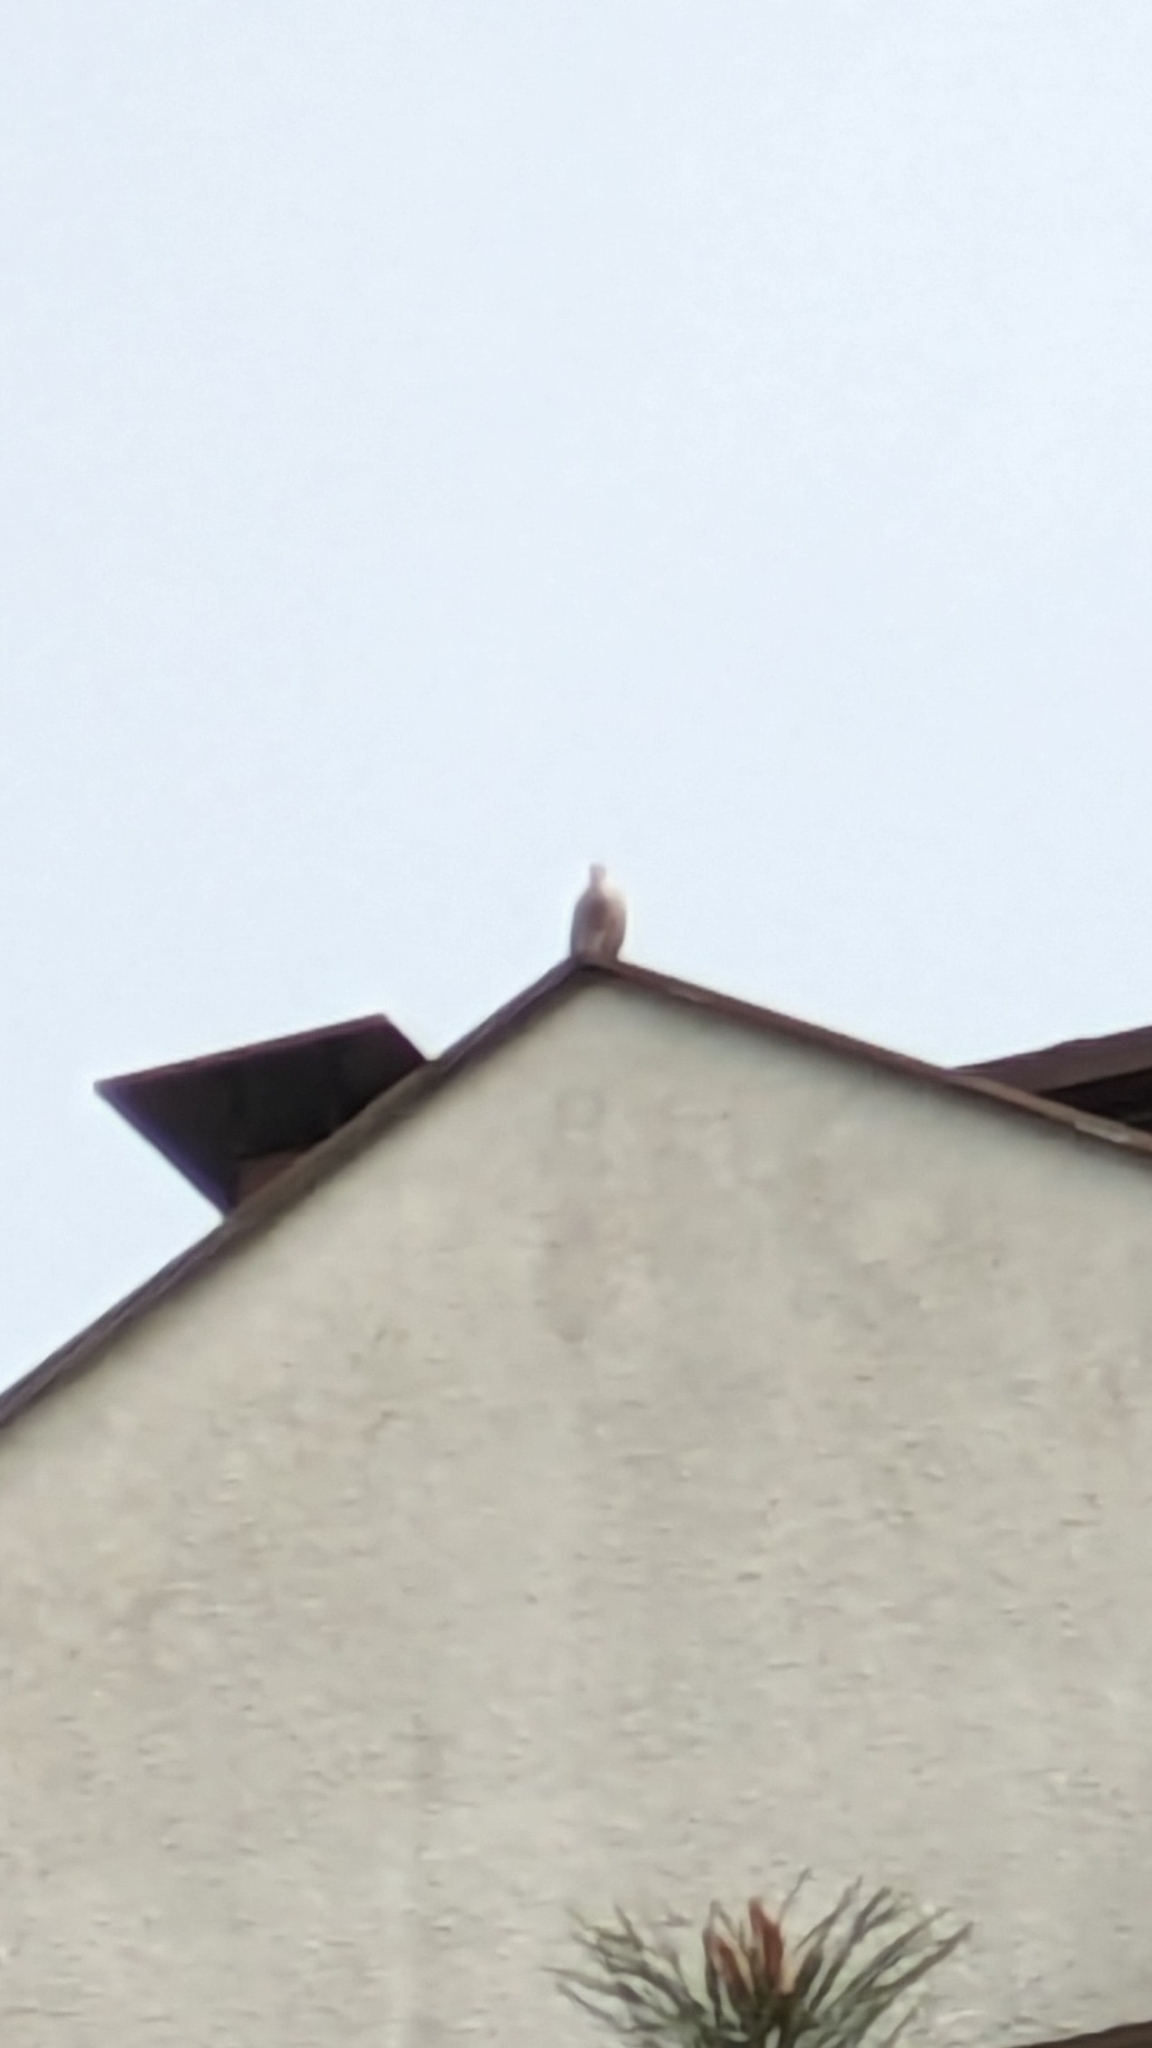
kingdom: Animalia
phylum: Chordata
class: Aves
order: Columbiformes
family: Columbidae
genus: Streptopelia
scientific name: Streptopelia decaocto
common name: Eurasian collared dove
